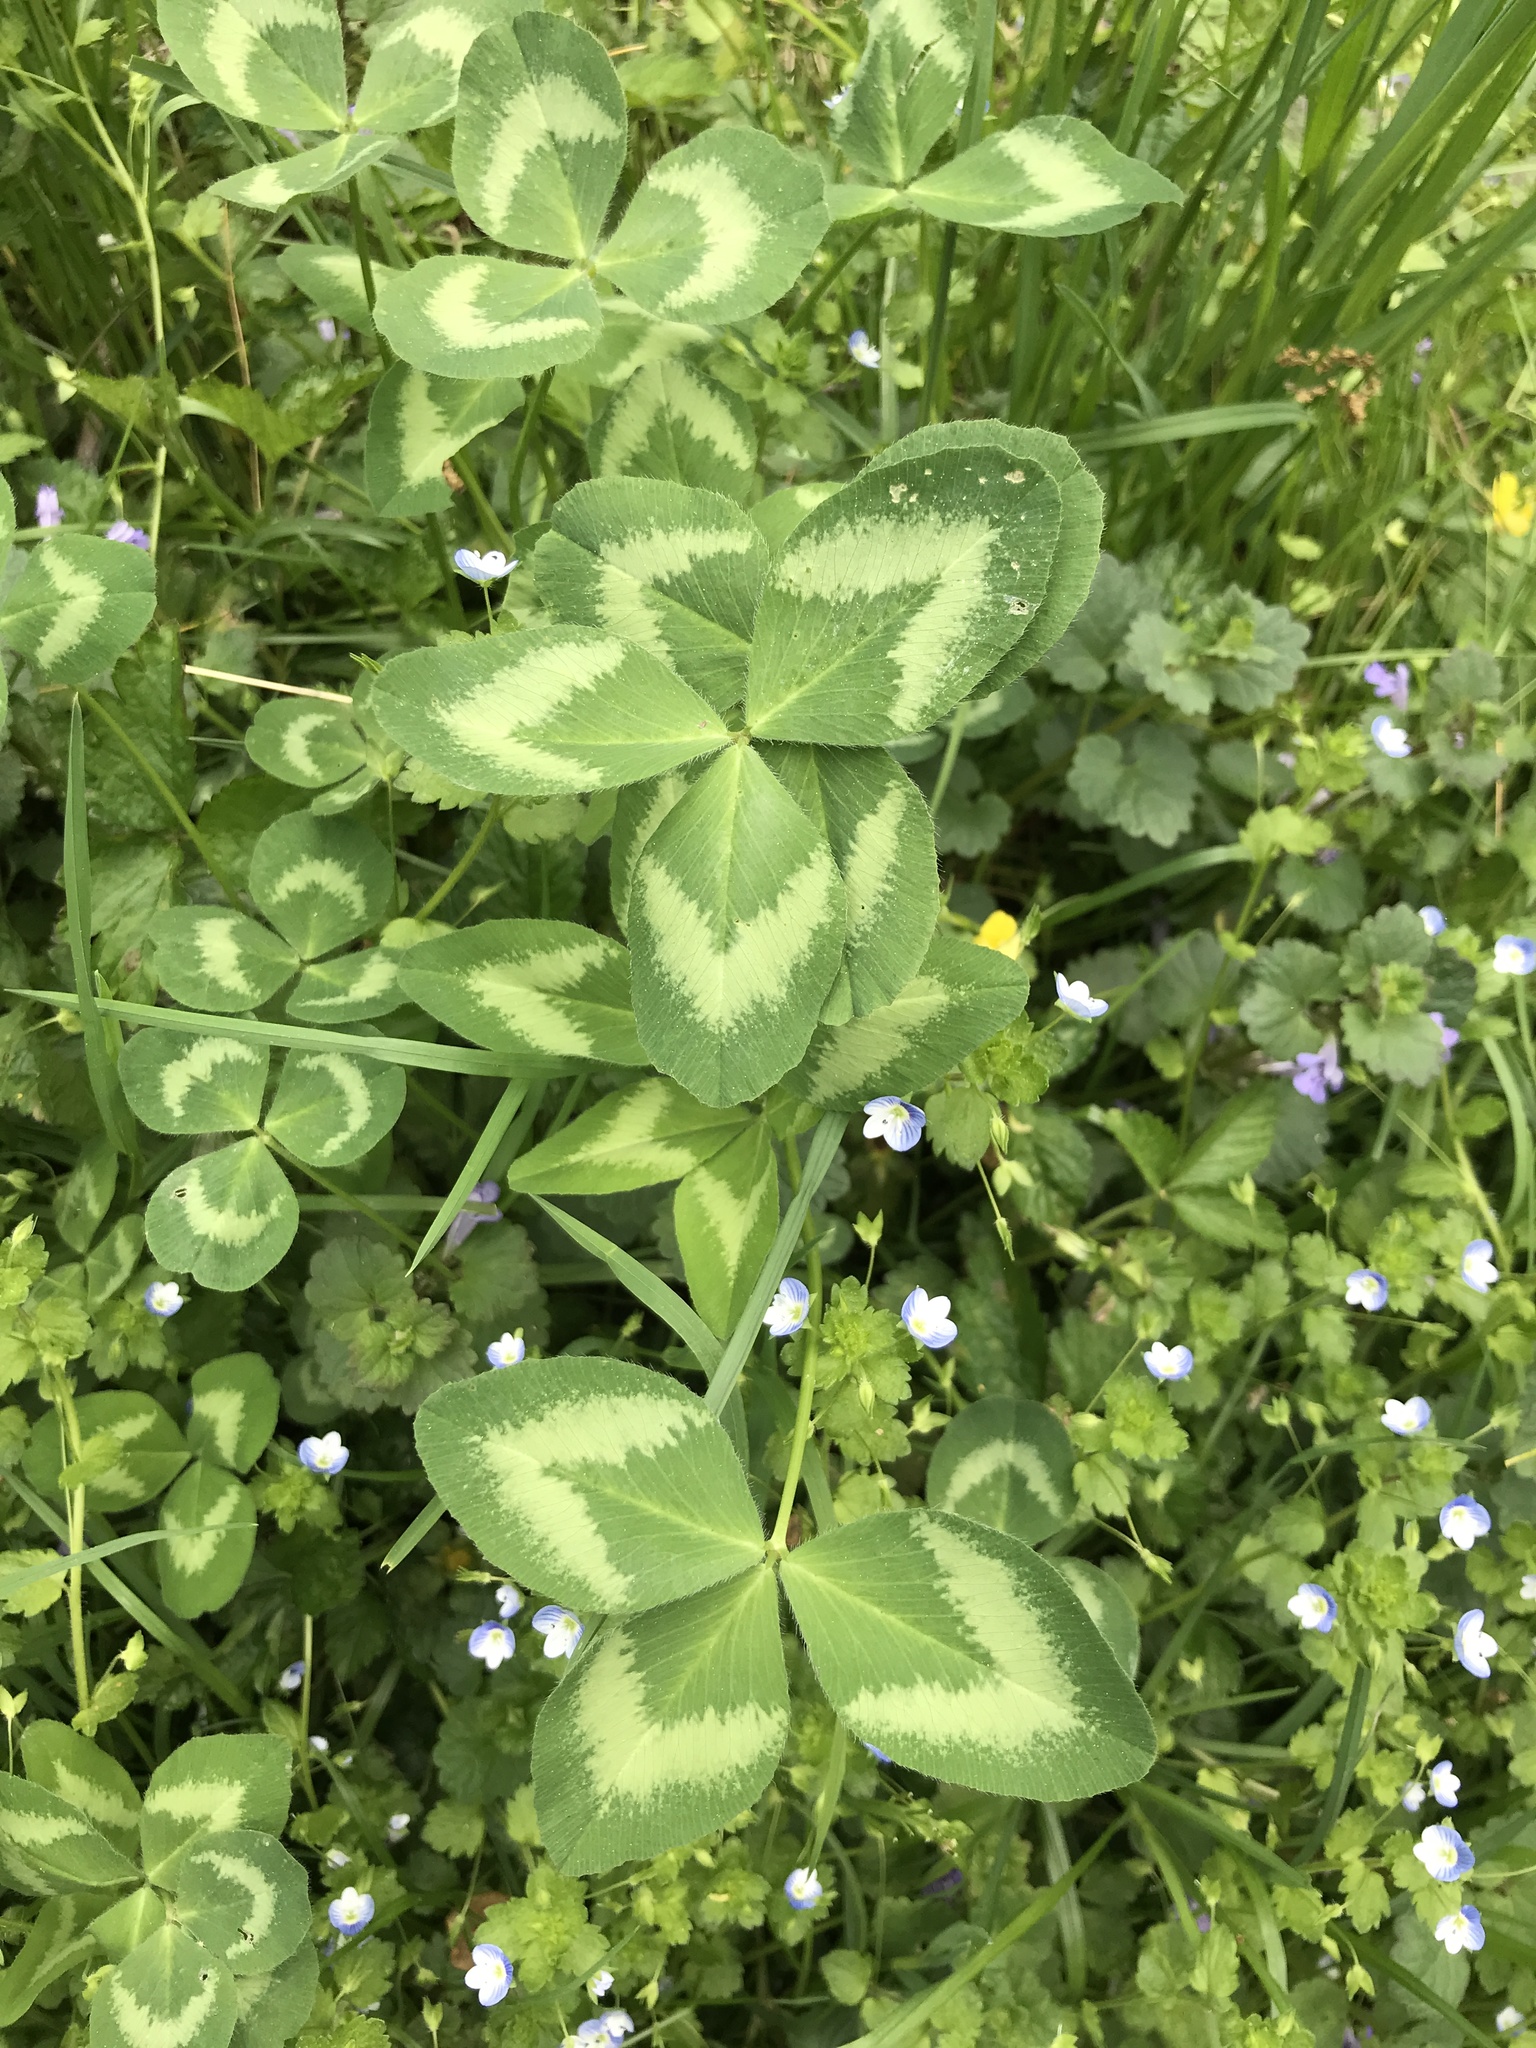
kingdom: Plantae
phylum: Tracheophyta
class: Magnoliopsida
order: Fabales
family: Fabaceae
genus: Trifolium
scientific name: Trifolium pratense
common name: Red clover
